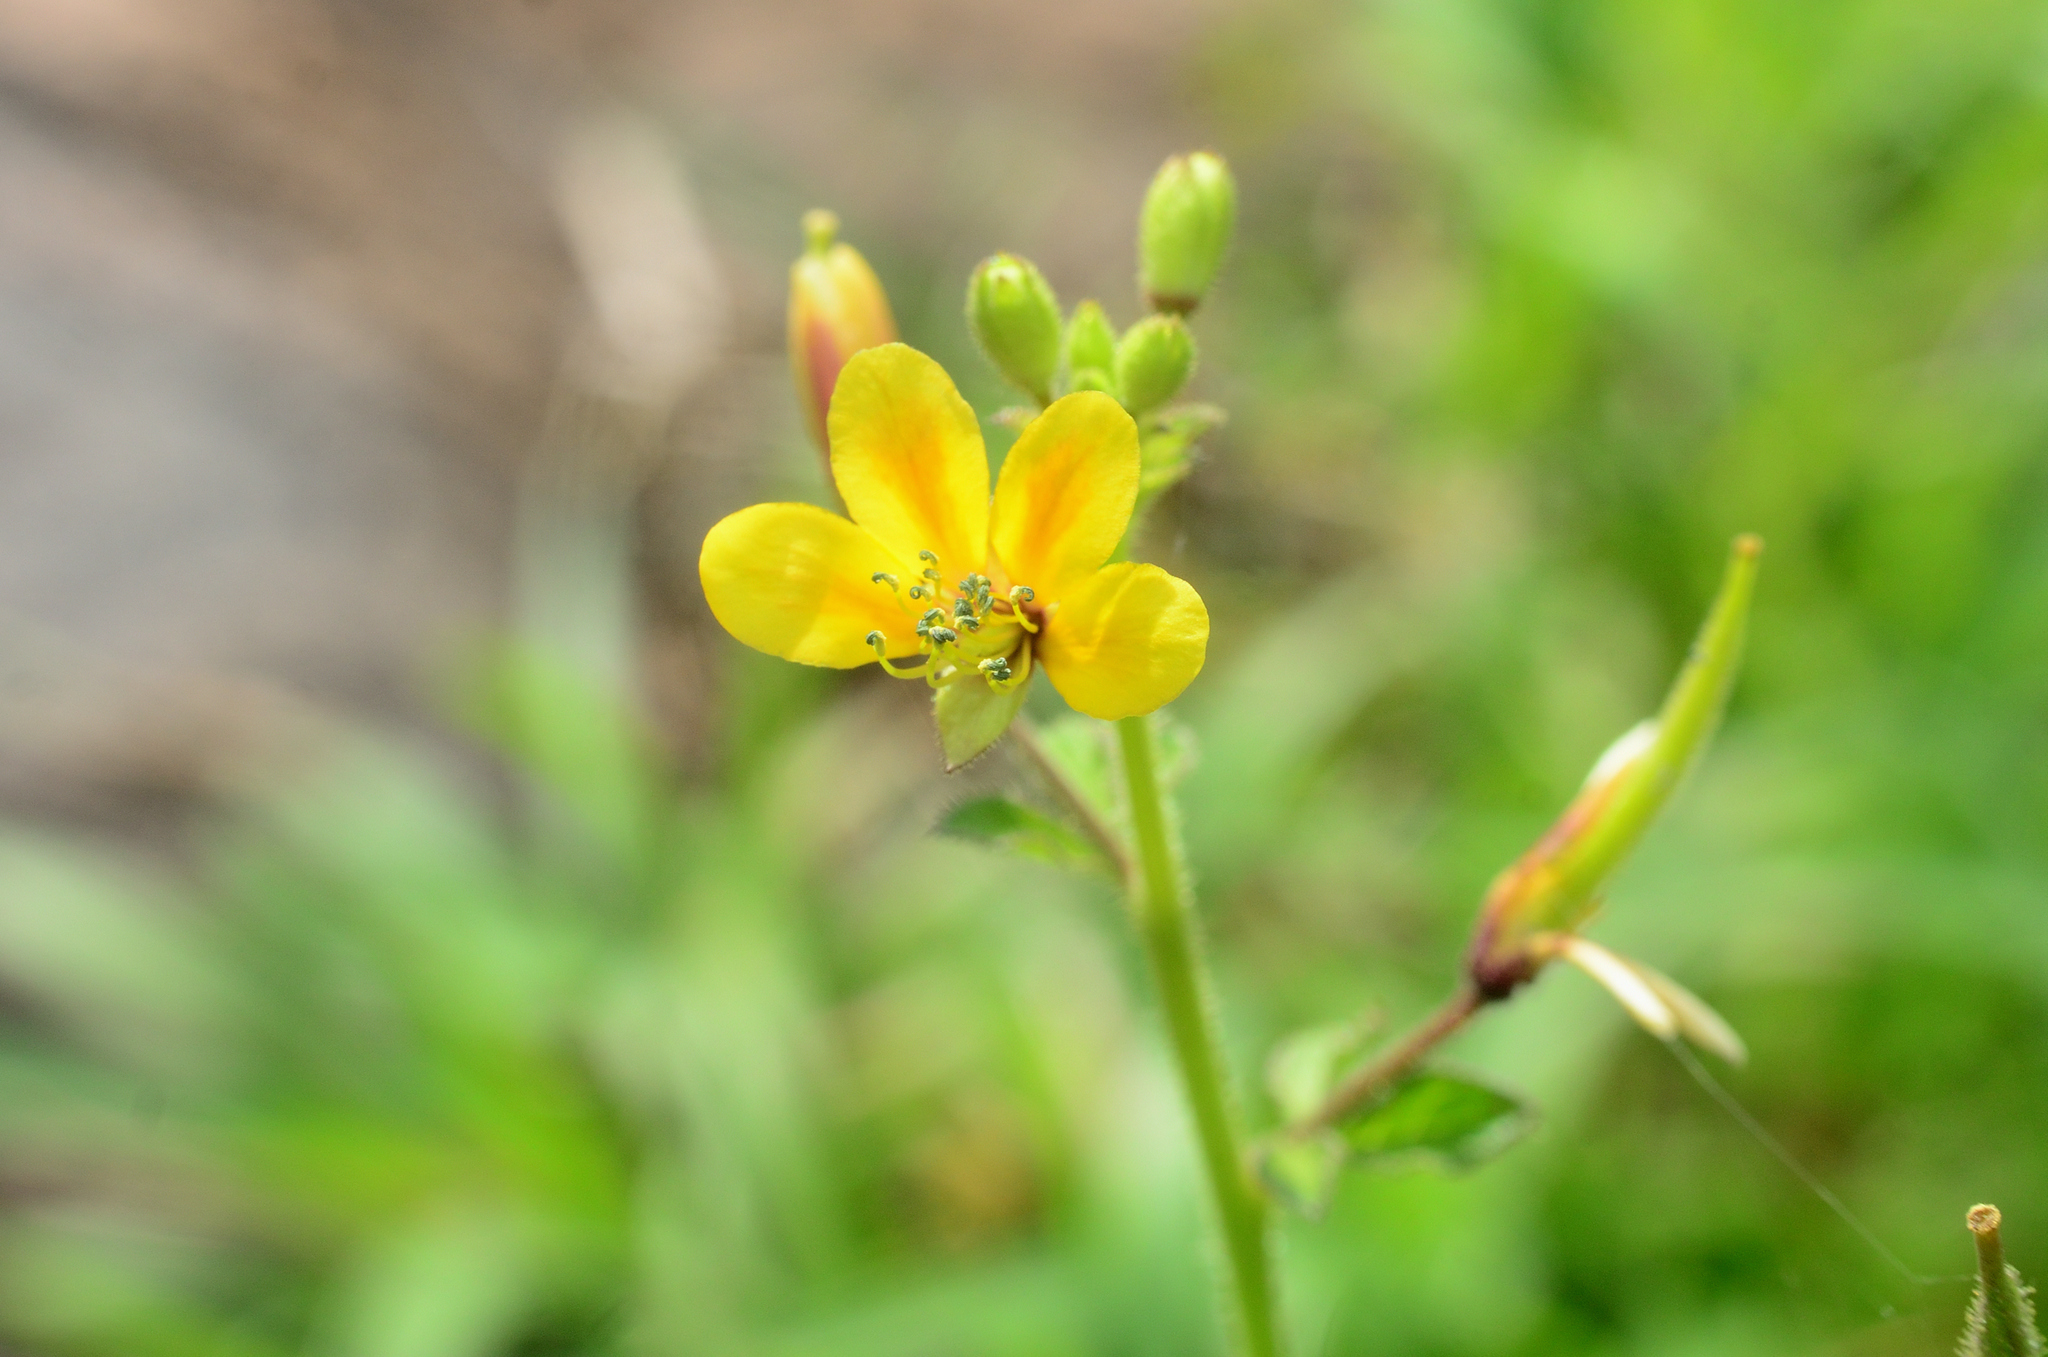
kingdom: Plantae
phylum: Tracheophyta
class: Magnoliopsida
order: Brassicales
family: Cleomaceae
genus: Arivela
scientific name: Arivela viscosa
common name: Asian spiderflower
